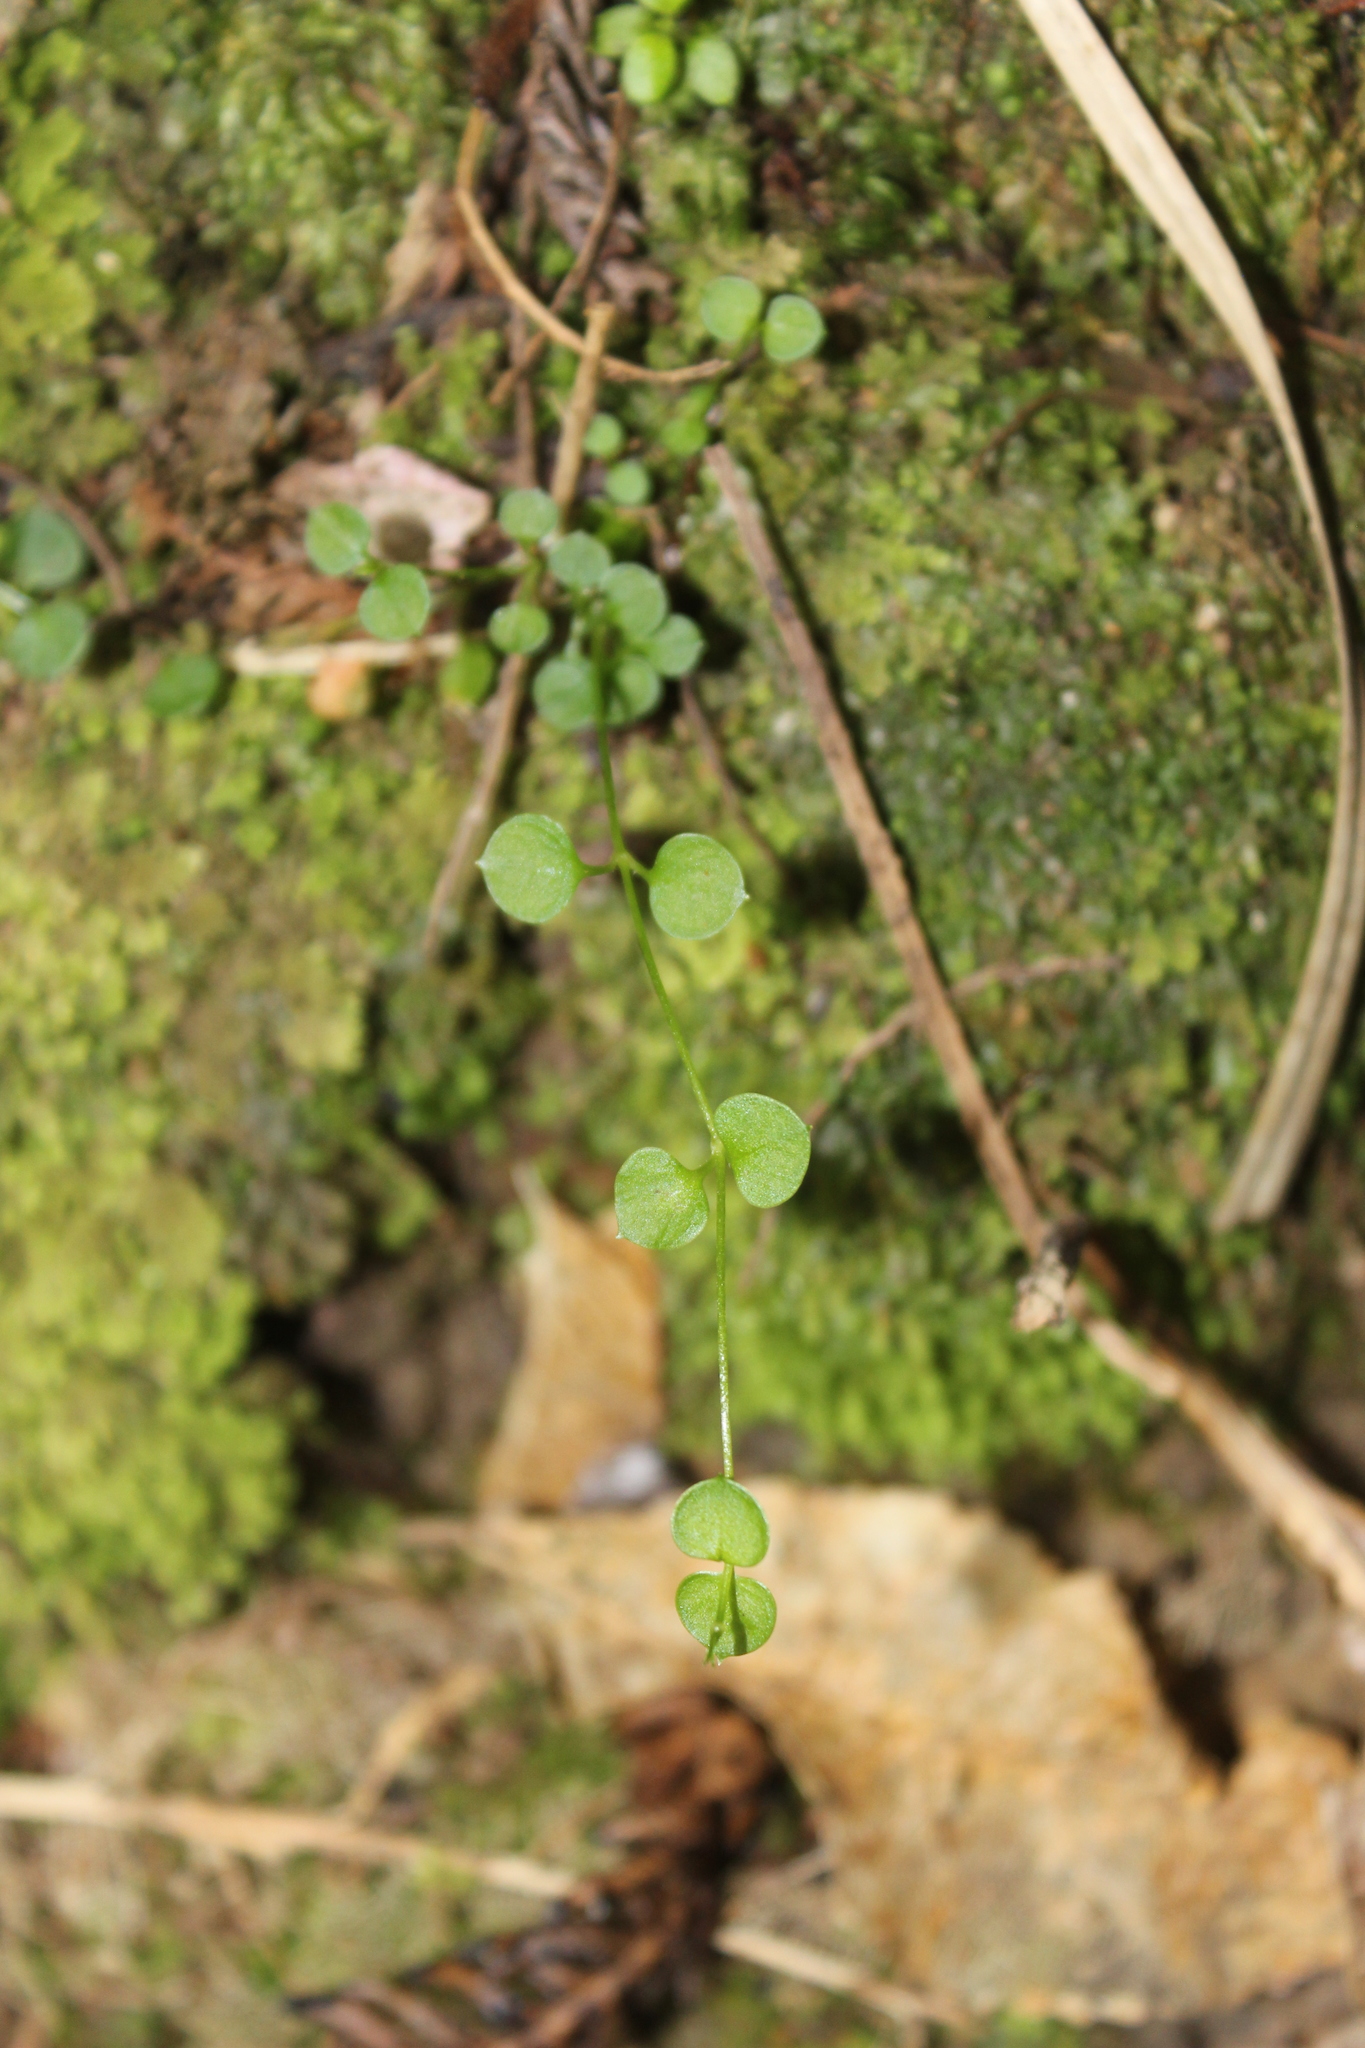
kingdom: Plantae
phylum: Tracheophyta
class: Magnoliopsida
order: Caryophyllales
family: Caryophyllaceae
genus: Stellaria
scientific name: Stellaria parviflora
